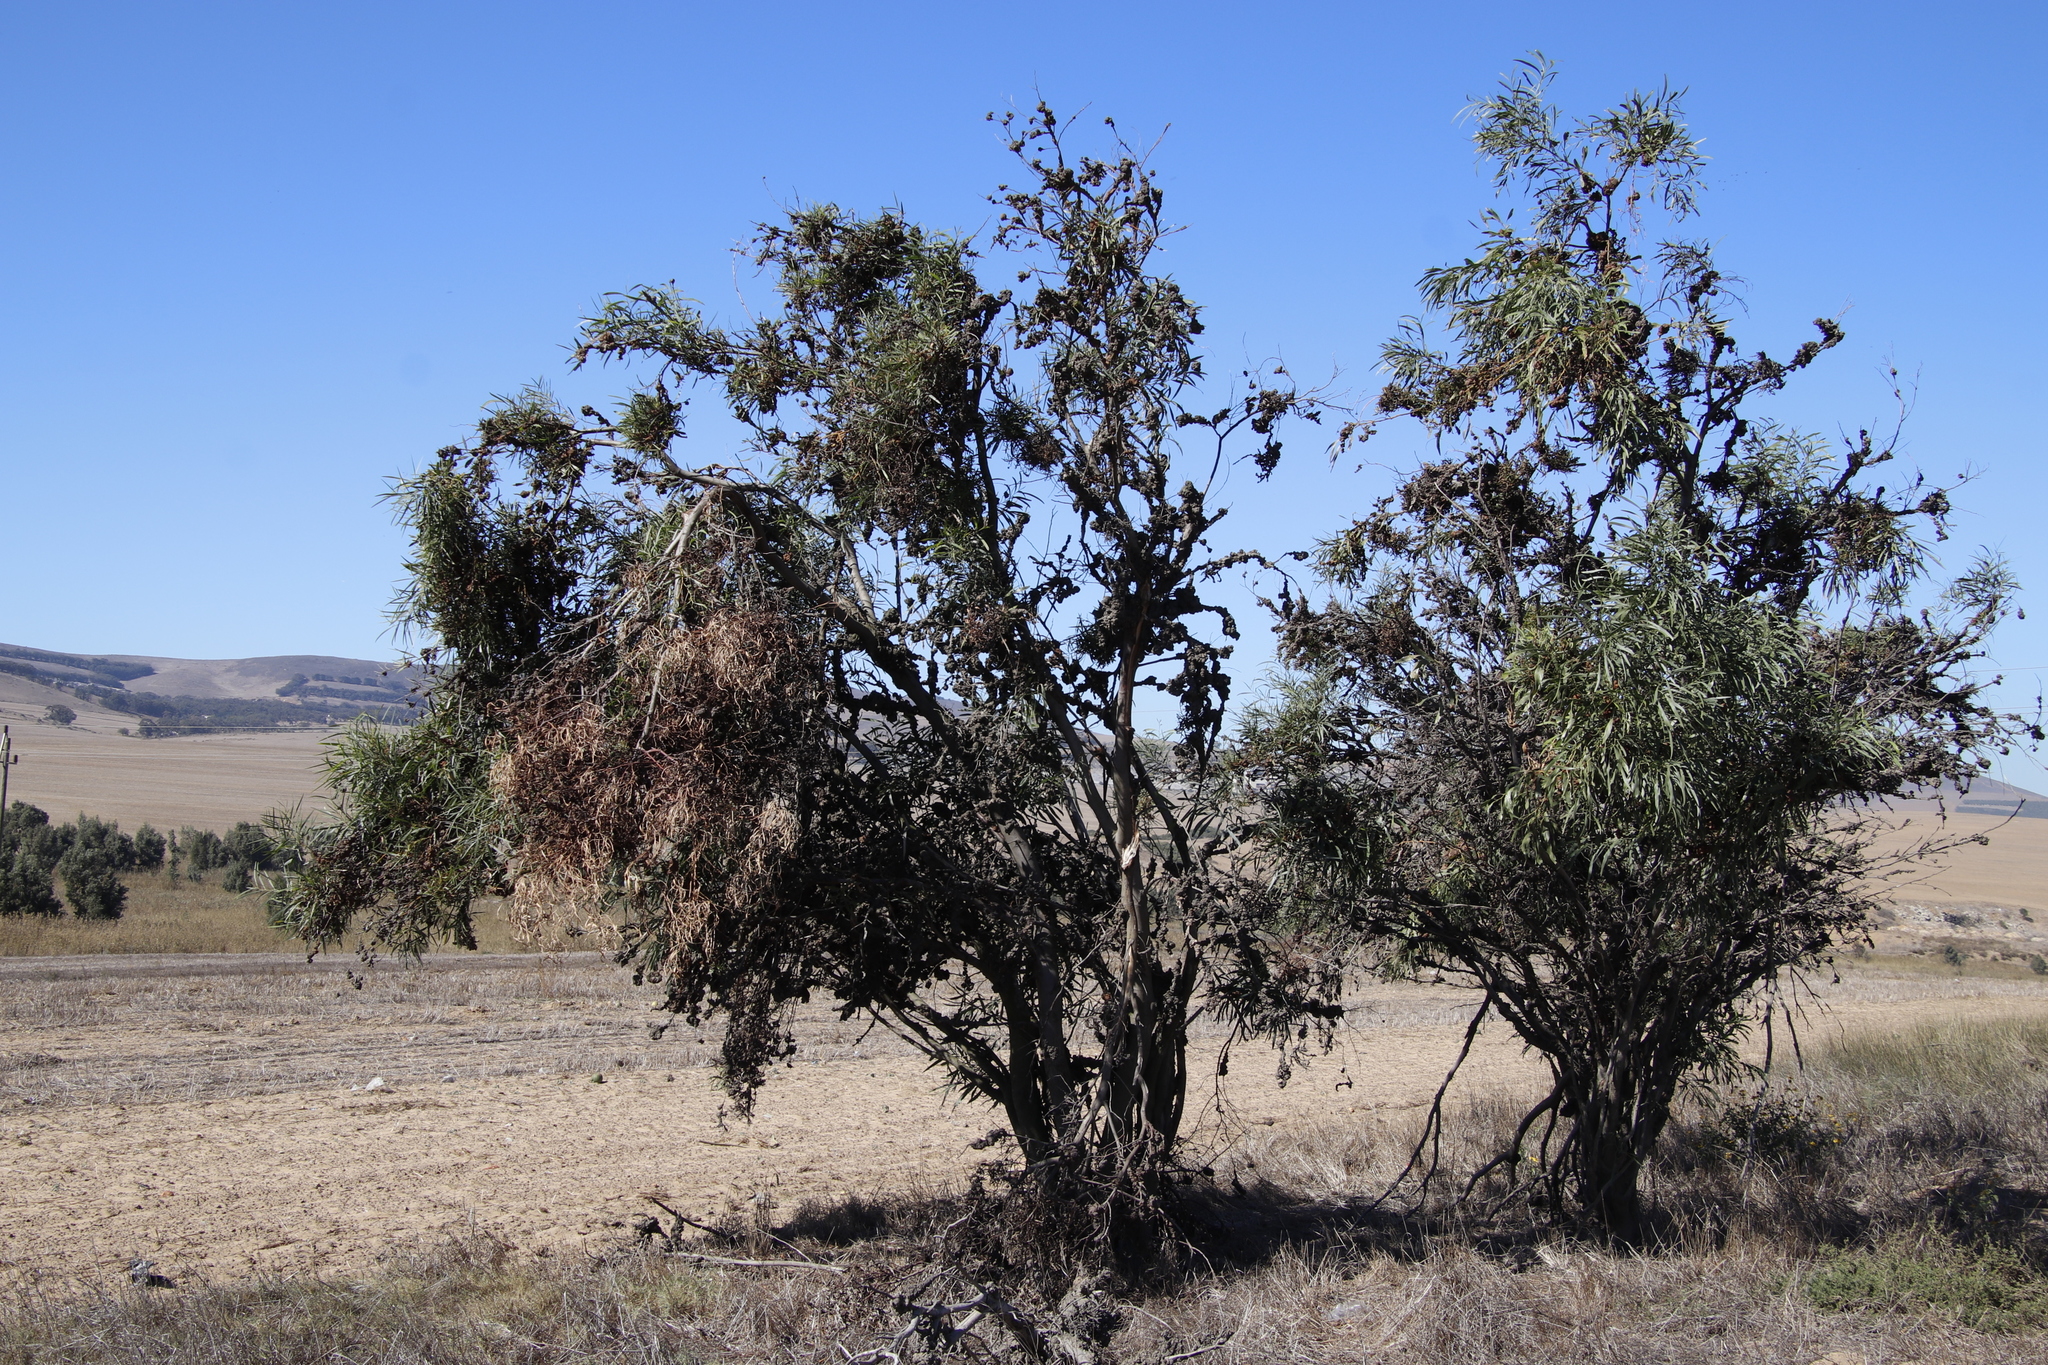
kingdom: Plantae
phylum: Tracheophyta
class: Magnoliopsida
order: Fabales
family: Fabaceae
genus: Acacia
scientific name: Acacia saligna
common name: Orange wattle
